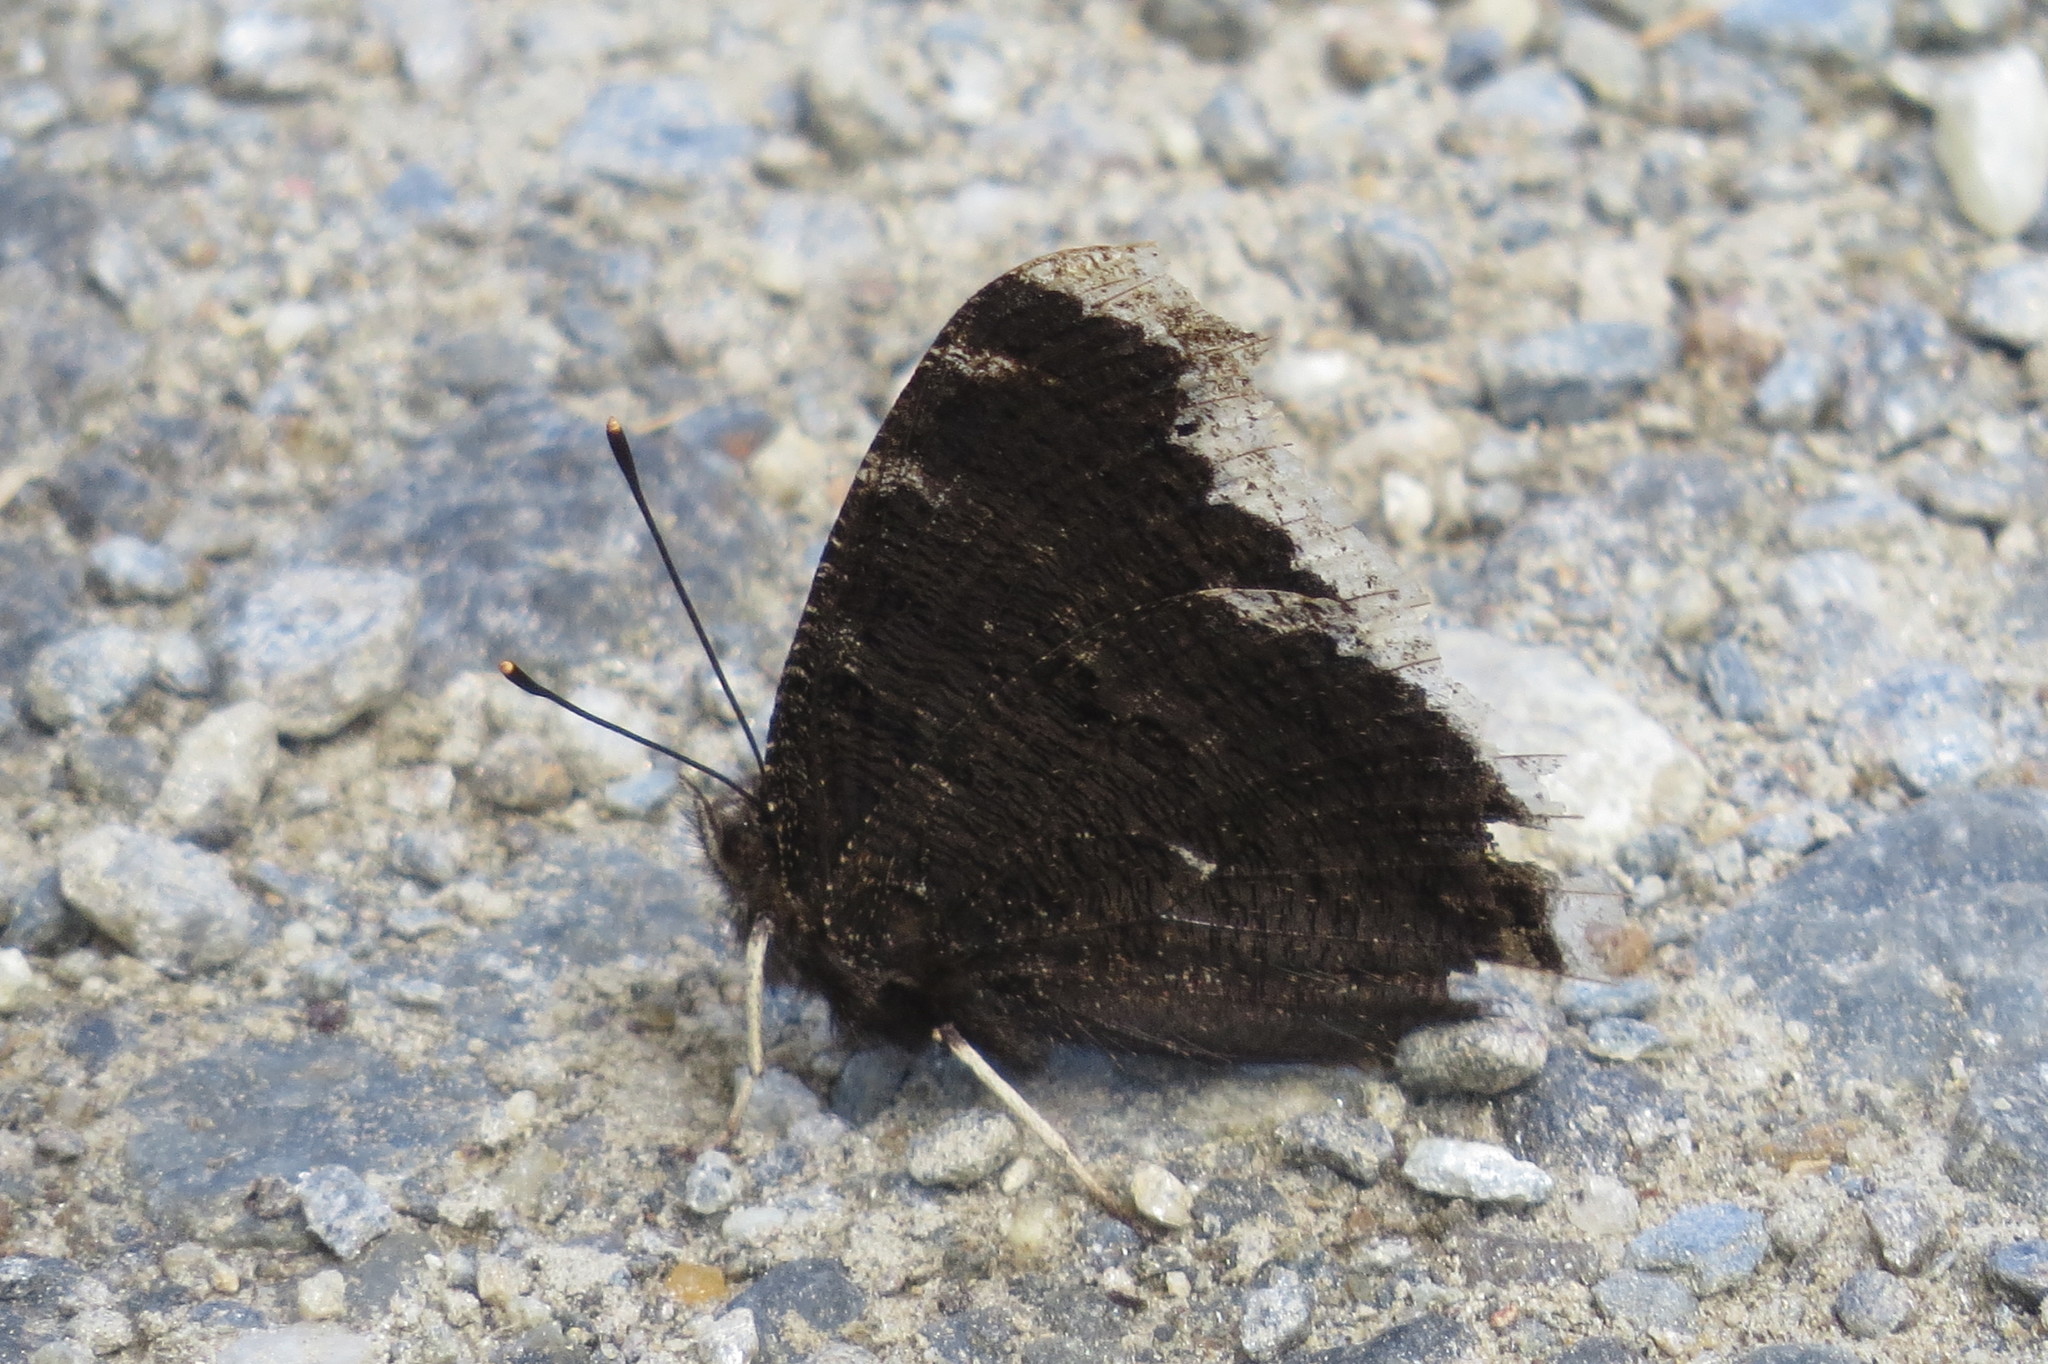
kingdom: Animalia
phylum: Arthropoda
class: Insecta
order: Lepidoptera
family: Nymphalidae
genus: Nymphalis
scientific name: Nymphalis antiopa
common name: Camberwell beauty
